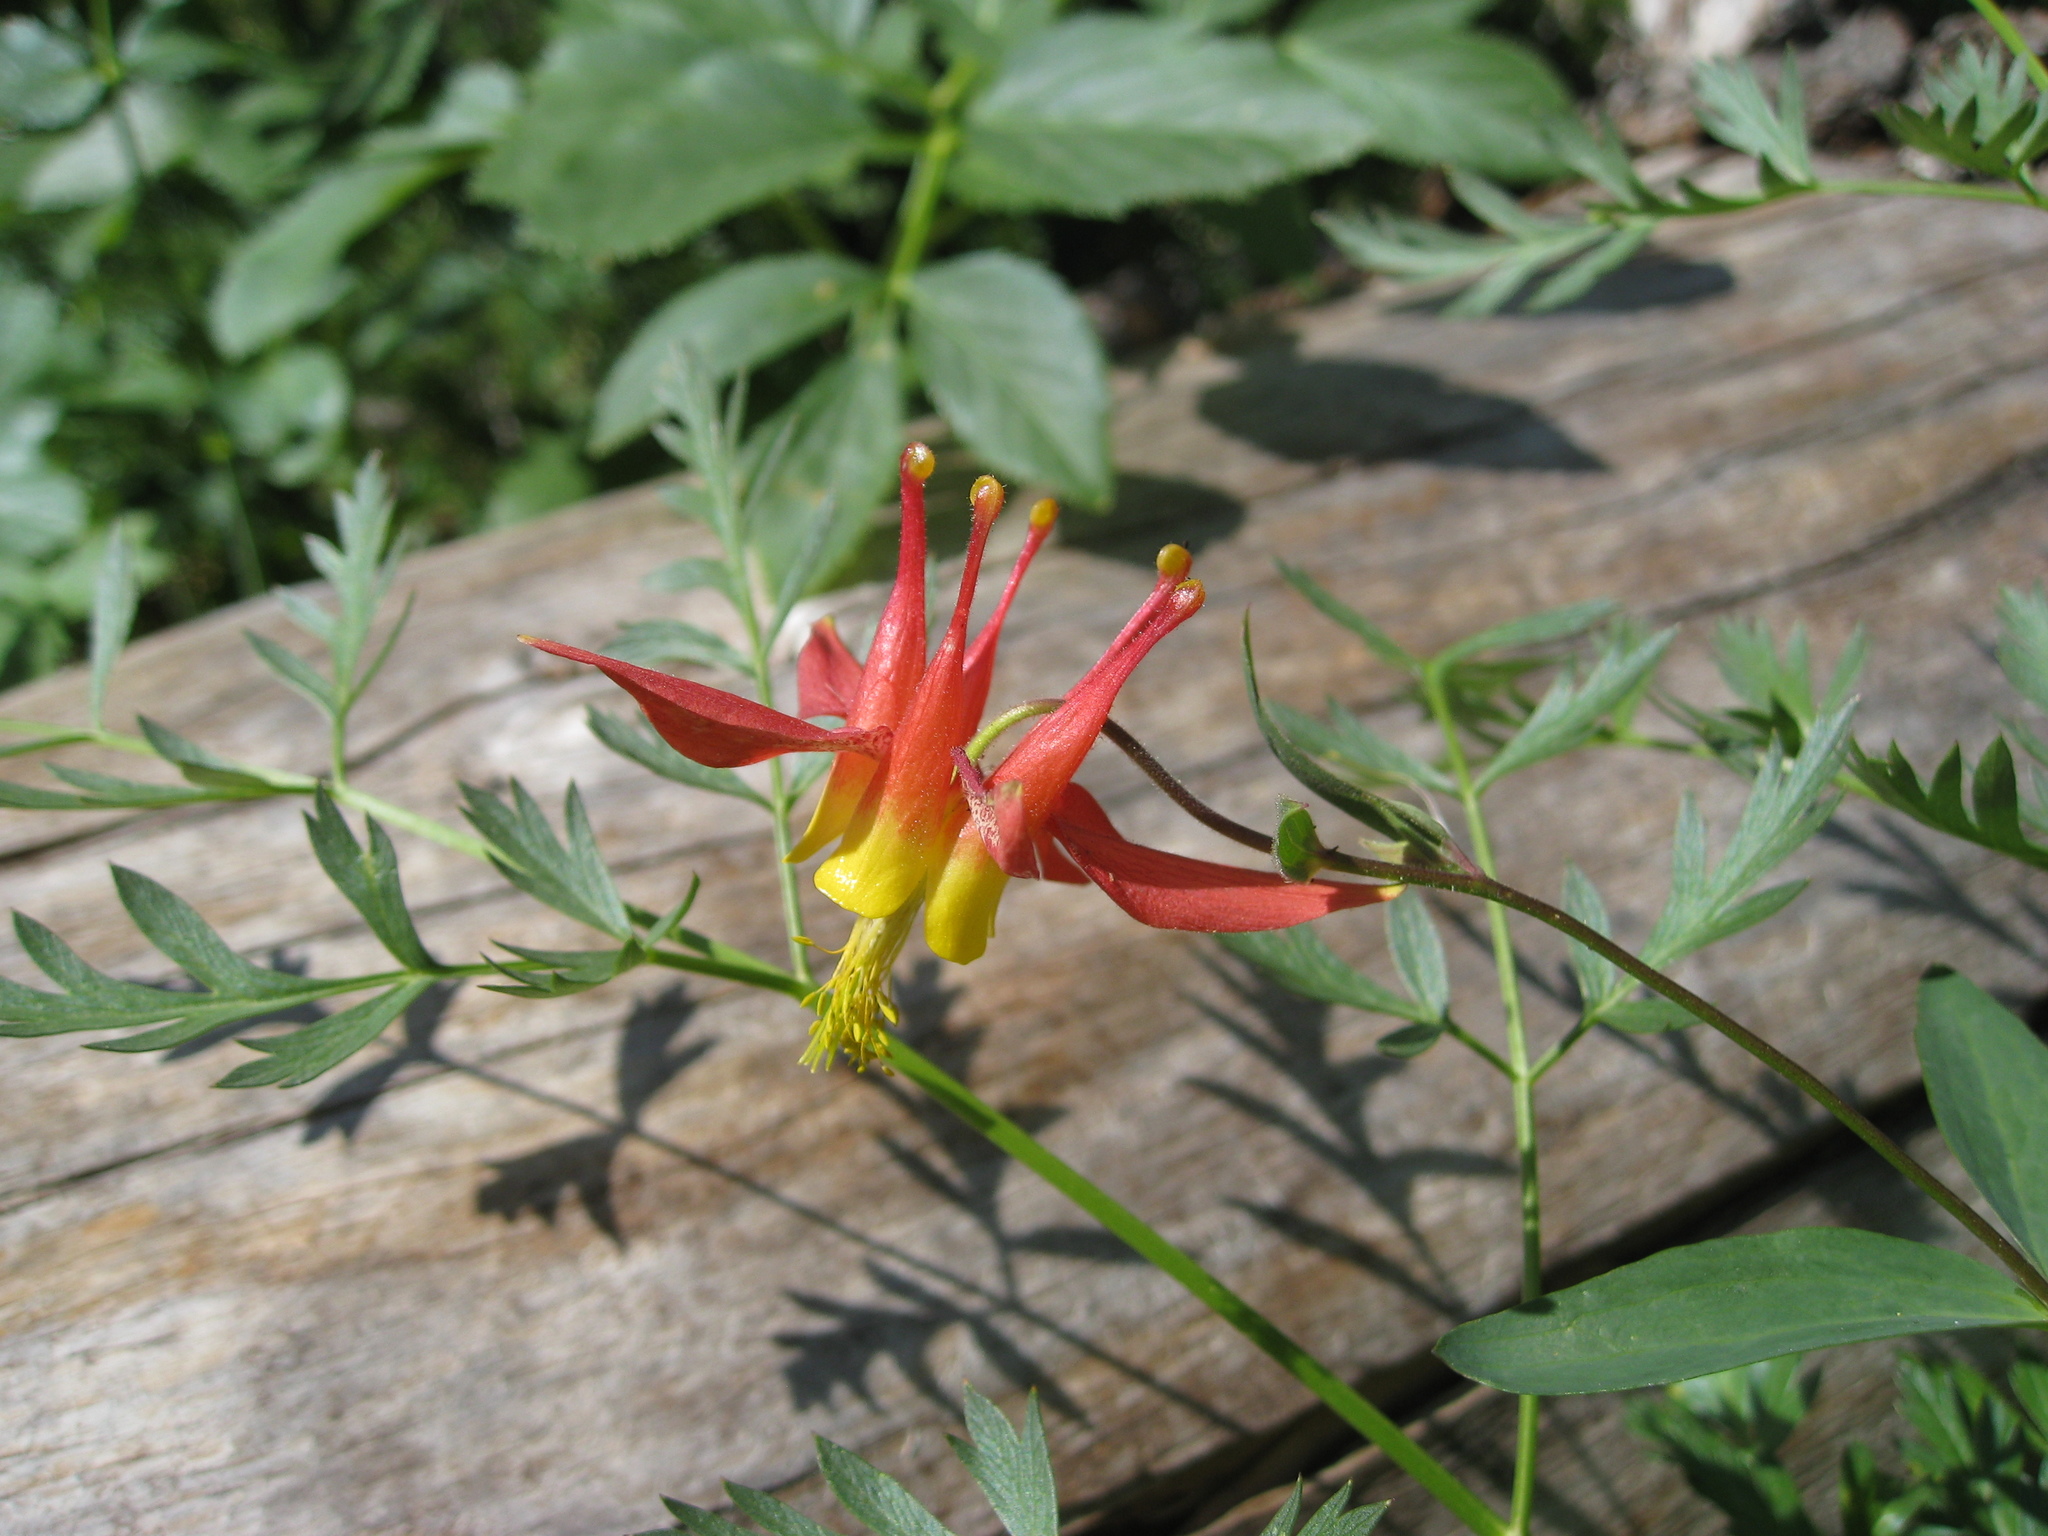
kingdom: Plantae
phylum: Tracheophyta
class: Magnoliopsida
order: Ranunculales
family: Ranunculaceae
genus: Aquilegia
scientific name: Aquilegia formosa
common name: Sitka columbine
